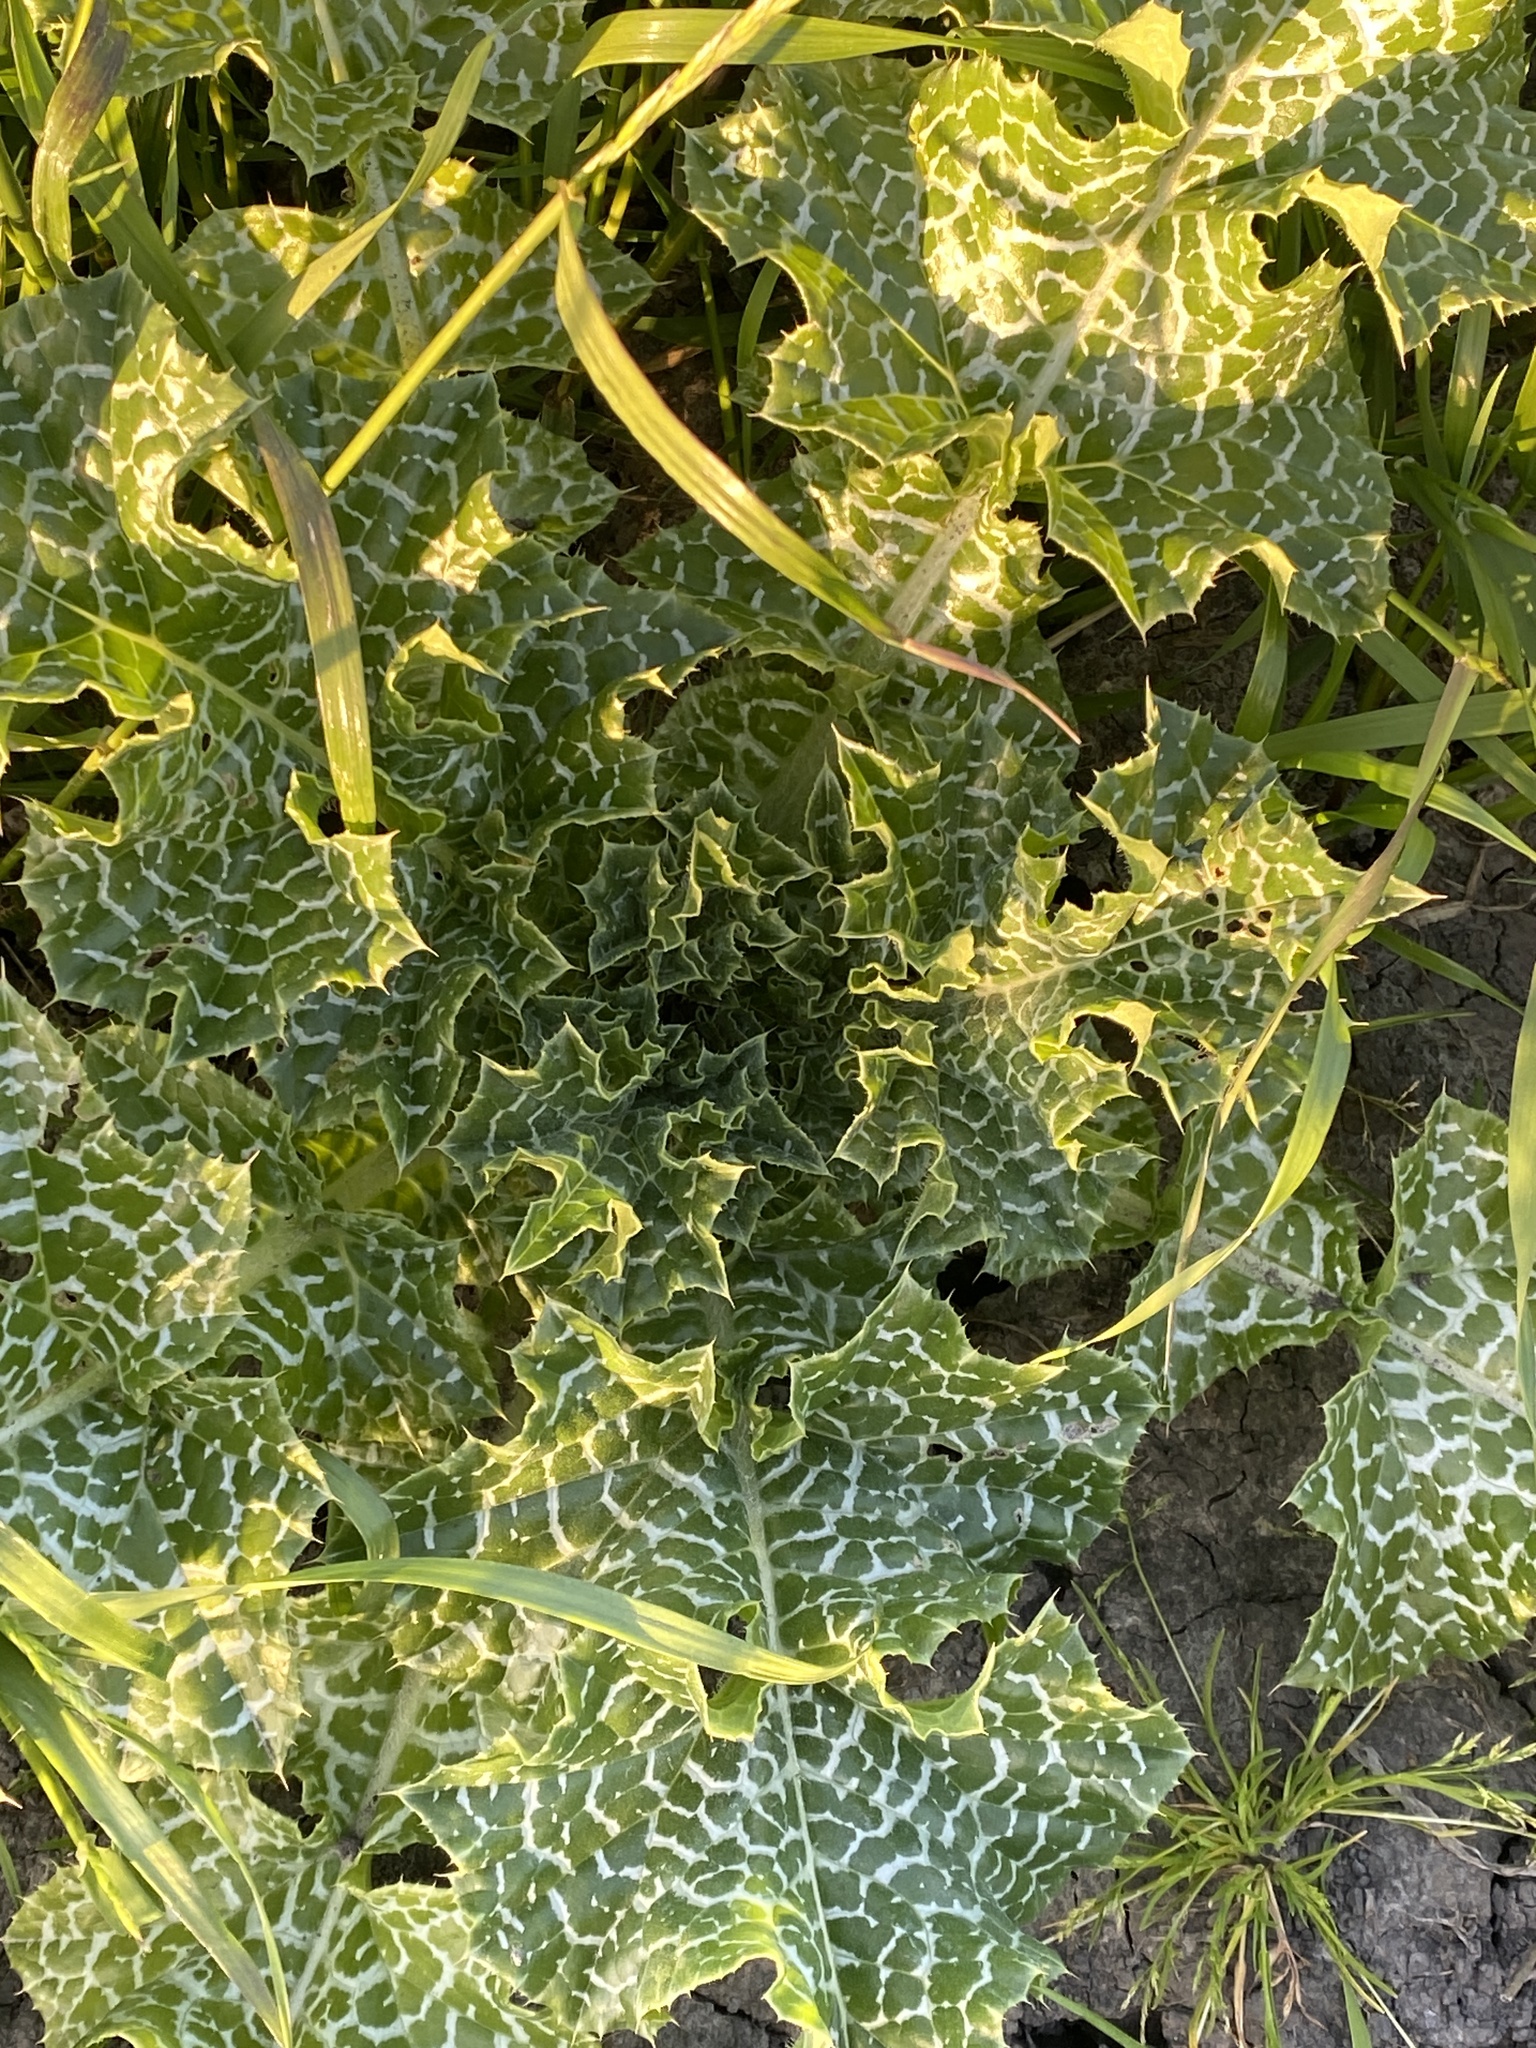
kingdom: Plantae
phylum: Tracheophyta
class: Magnoliopsida
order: Asterales
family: Asteraceae
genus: Silybum
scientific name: Silybum marianum
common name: Milk thistle
